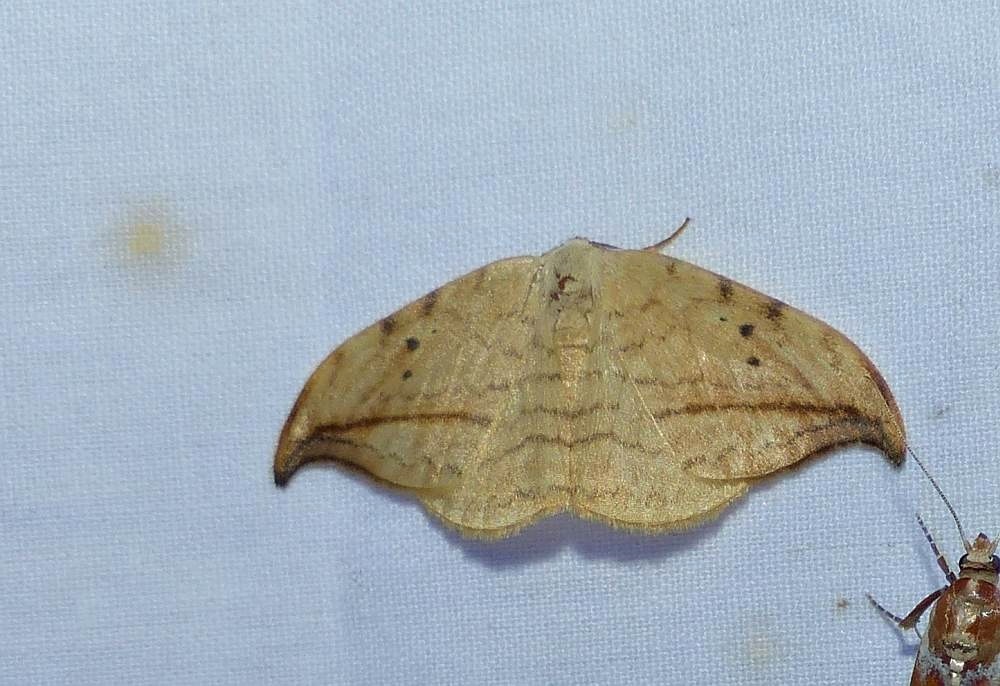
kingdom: Animalia
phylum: Arthropoda
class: Insecta
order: Lepidoptera
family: Drepanidae
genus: Drepana
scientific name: Drepana arcuata
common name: Arched hooktip moth
